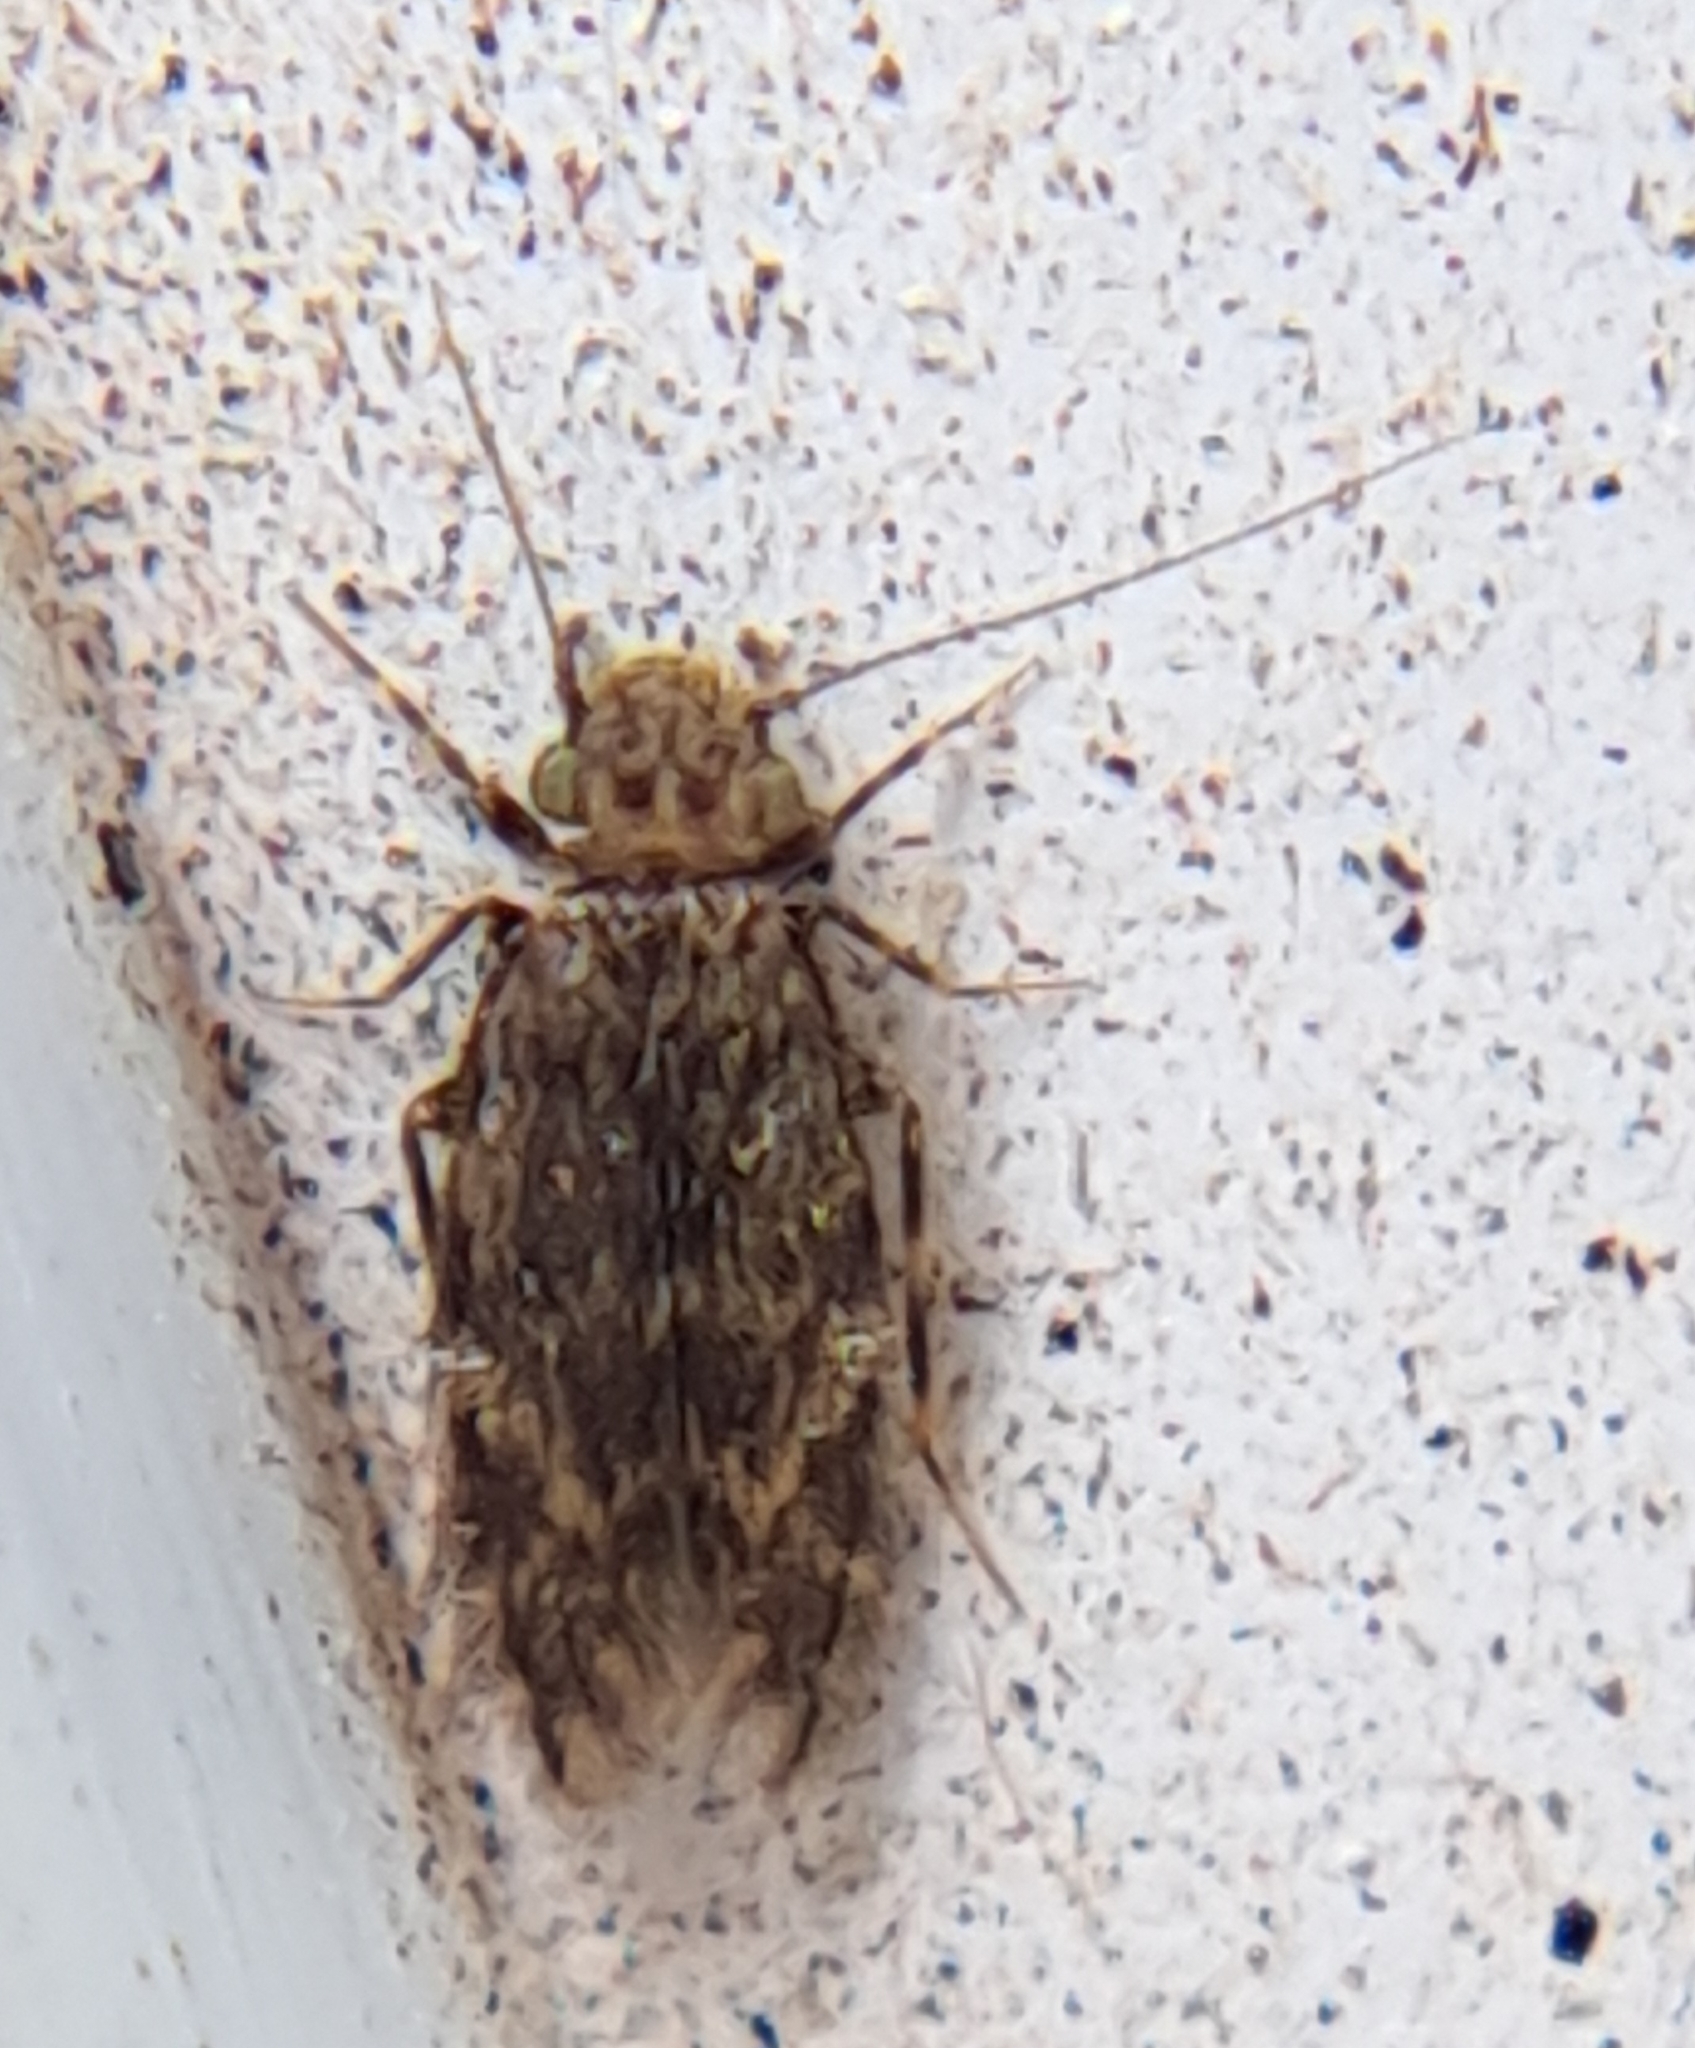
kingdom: Animalia
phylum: Arthropoda
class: Insecta
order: Psocodea
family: Lepidopsocidae
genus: Echmepteryx
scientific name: Echmepteryx hageni
